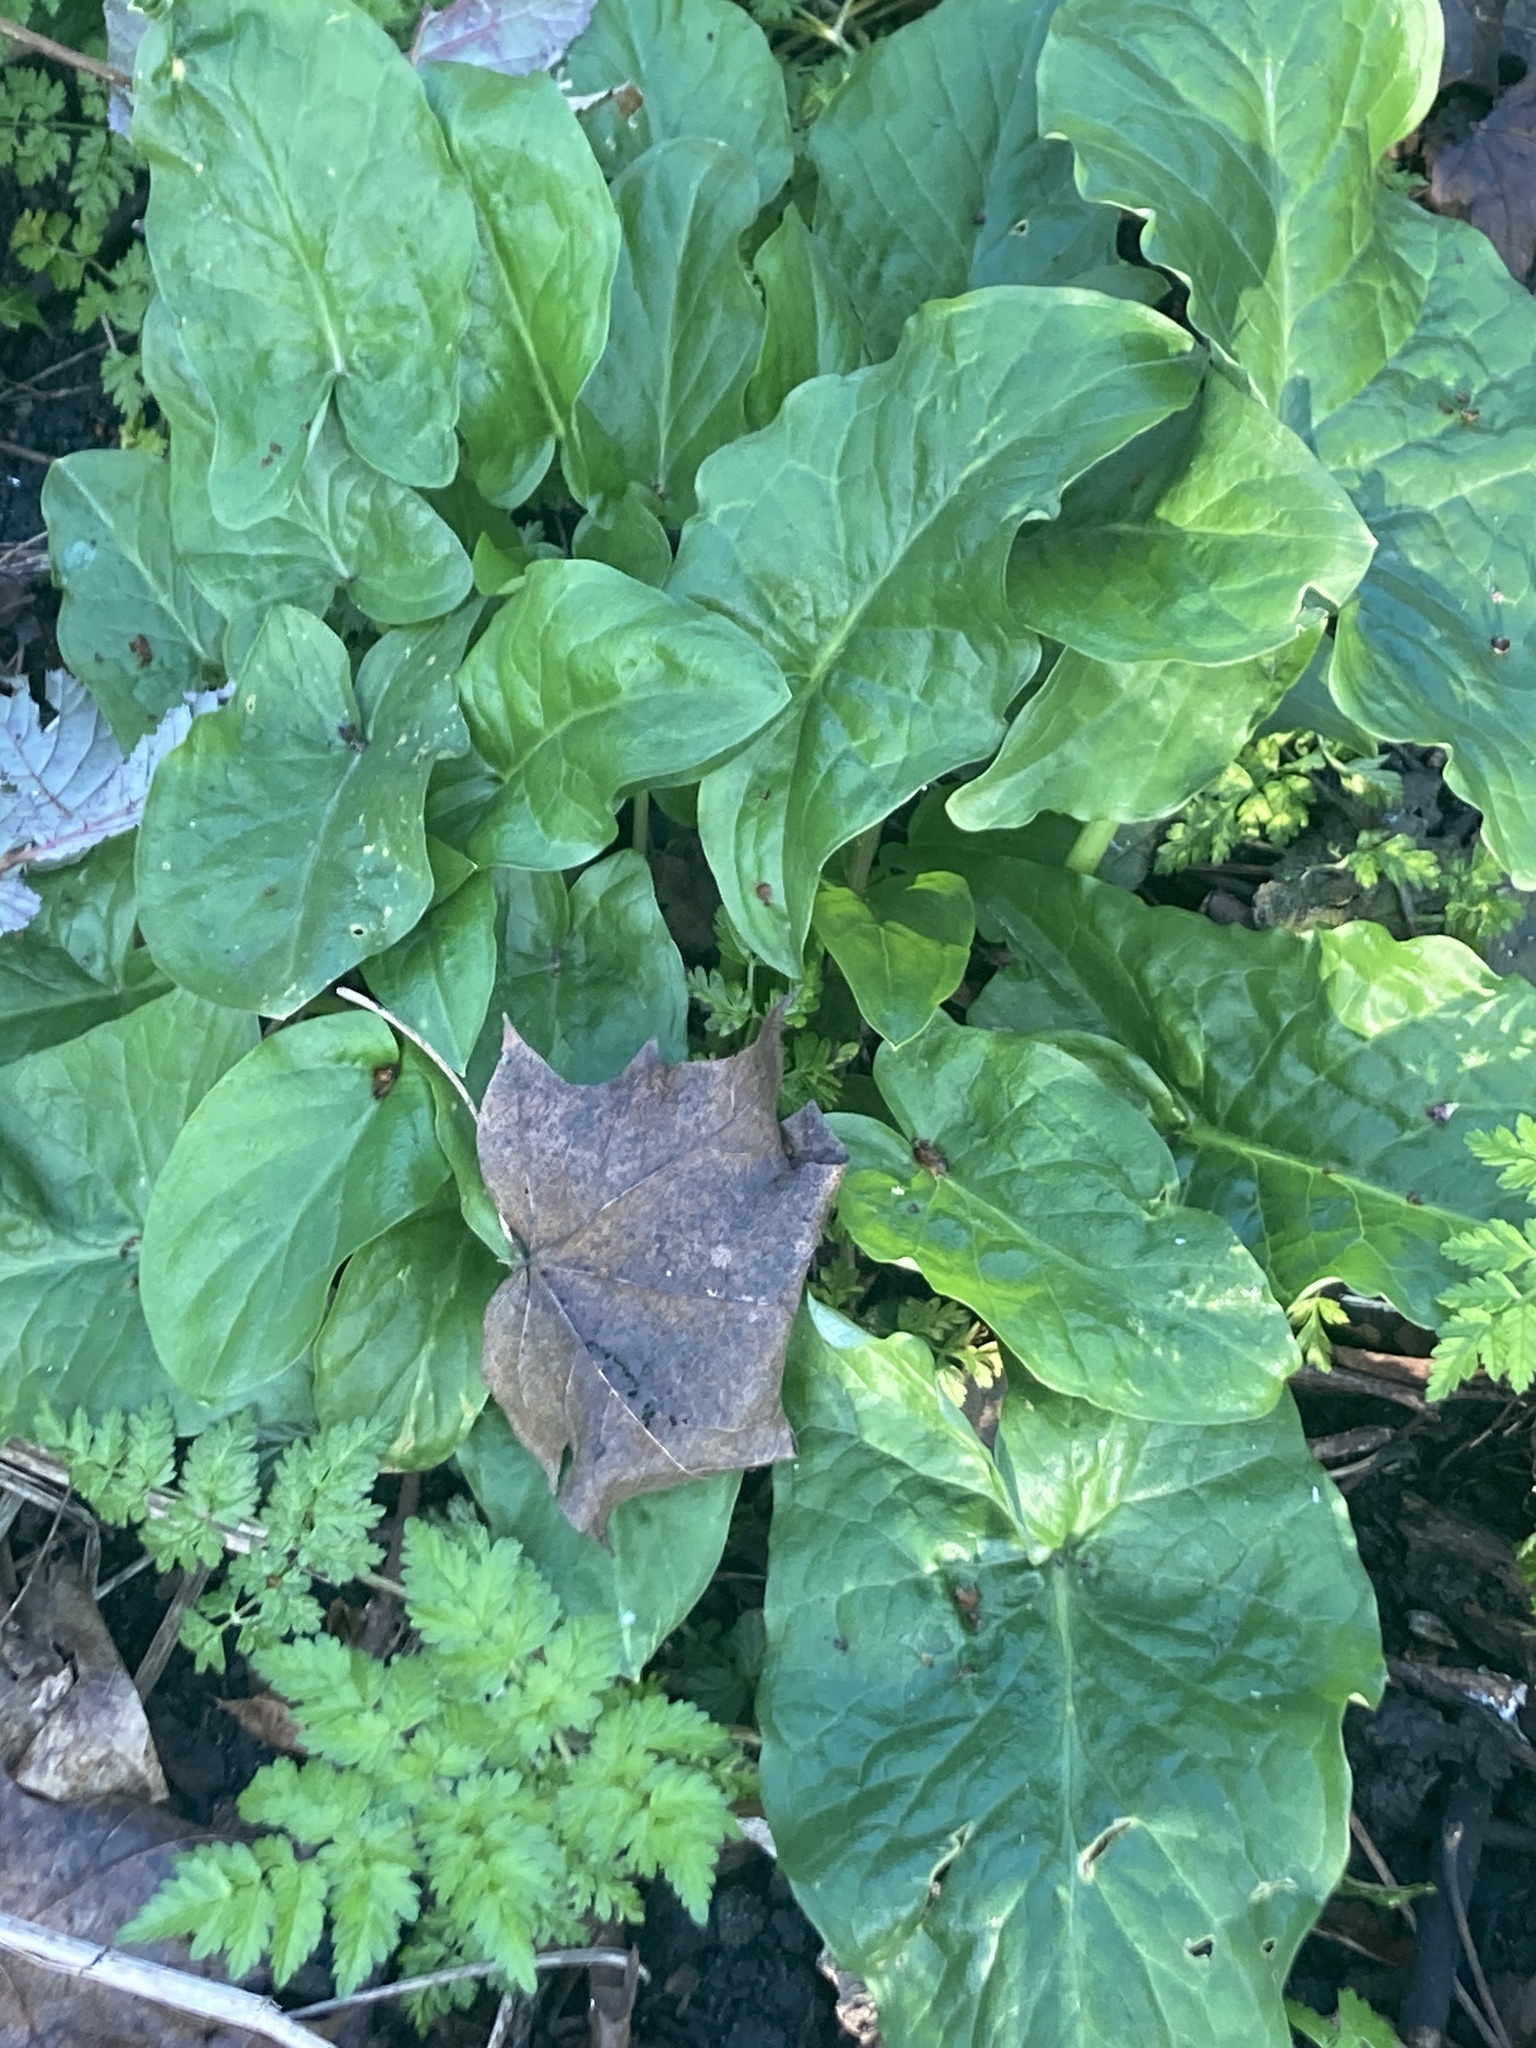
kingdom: Plantae
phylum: Tracheophyta
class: Liliopsida
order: Alismatales
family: Araceae
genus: Arum
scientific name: Arum maculatum
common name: Lords-and-ladies
